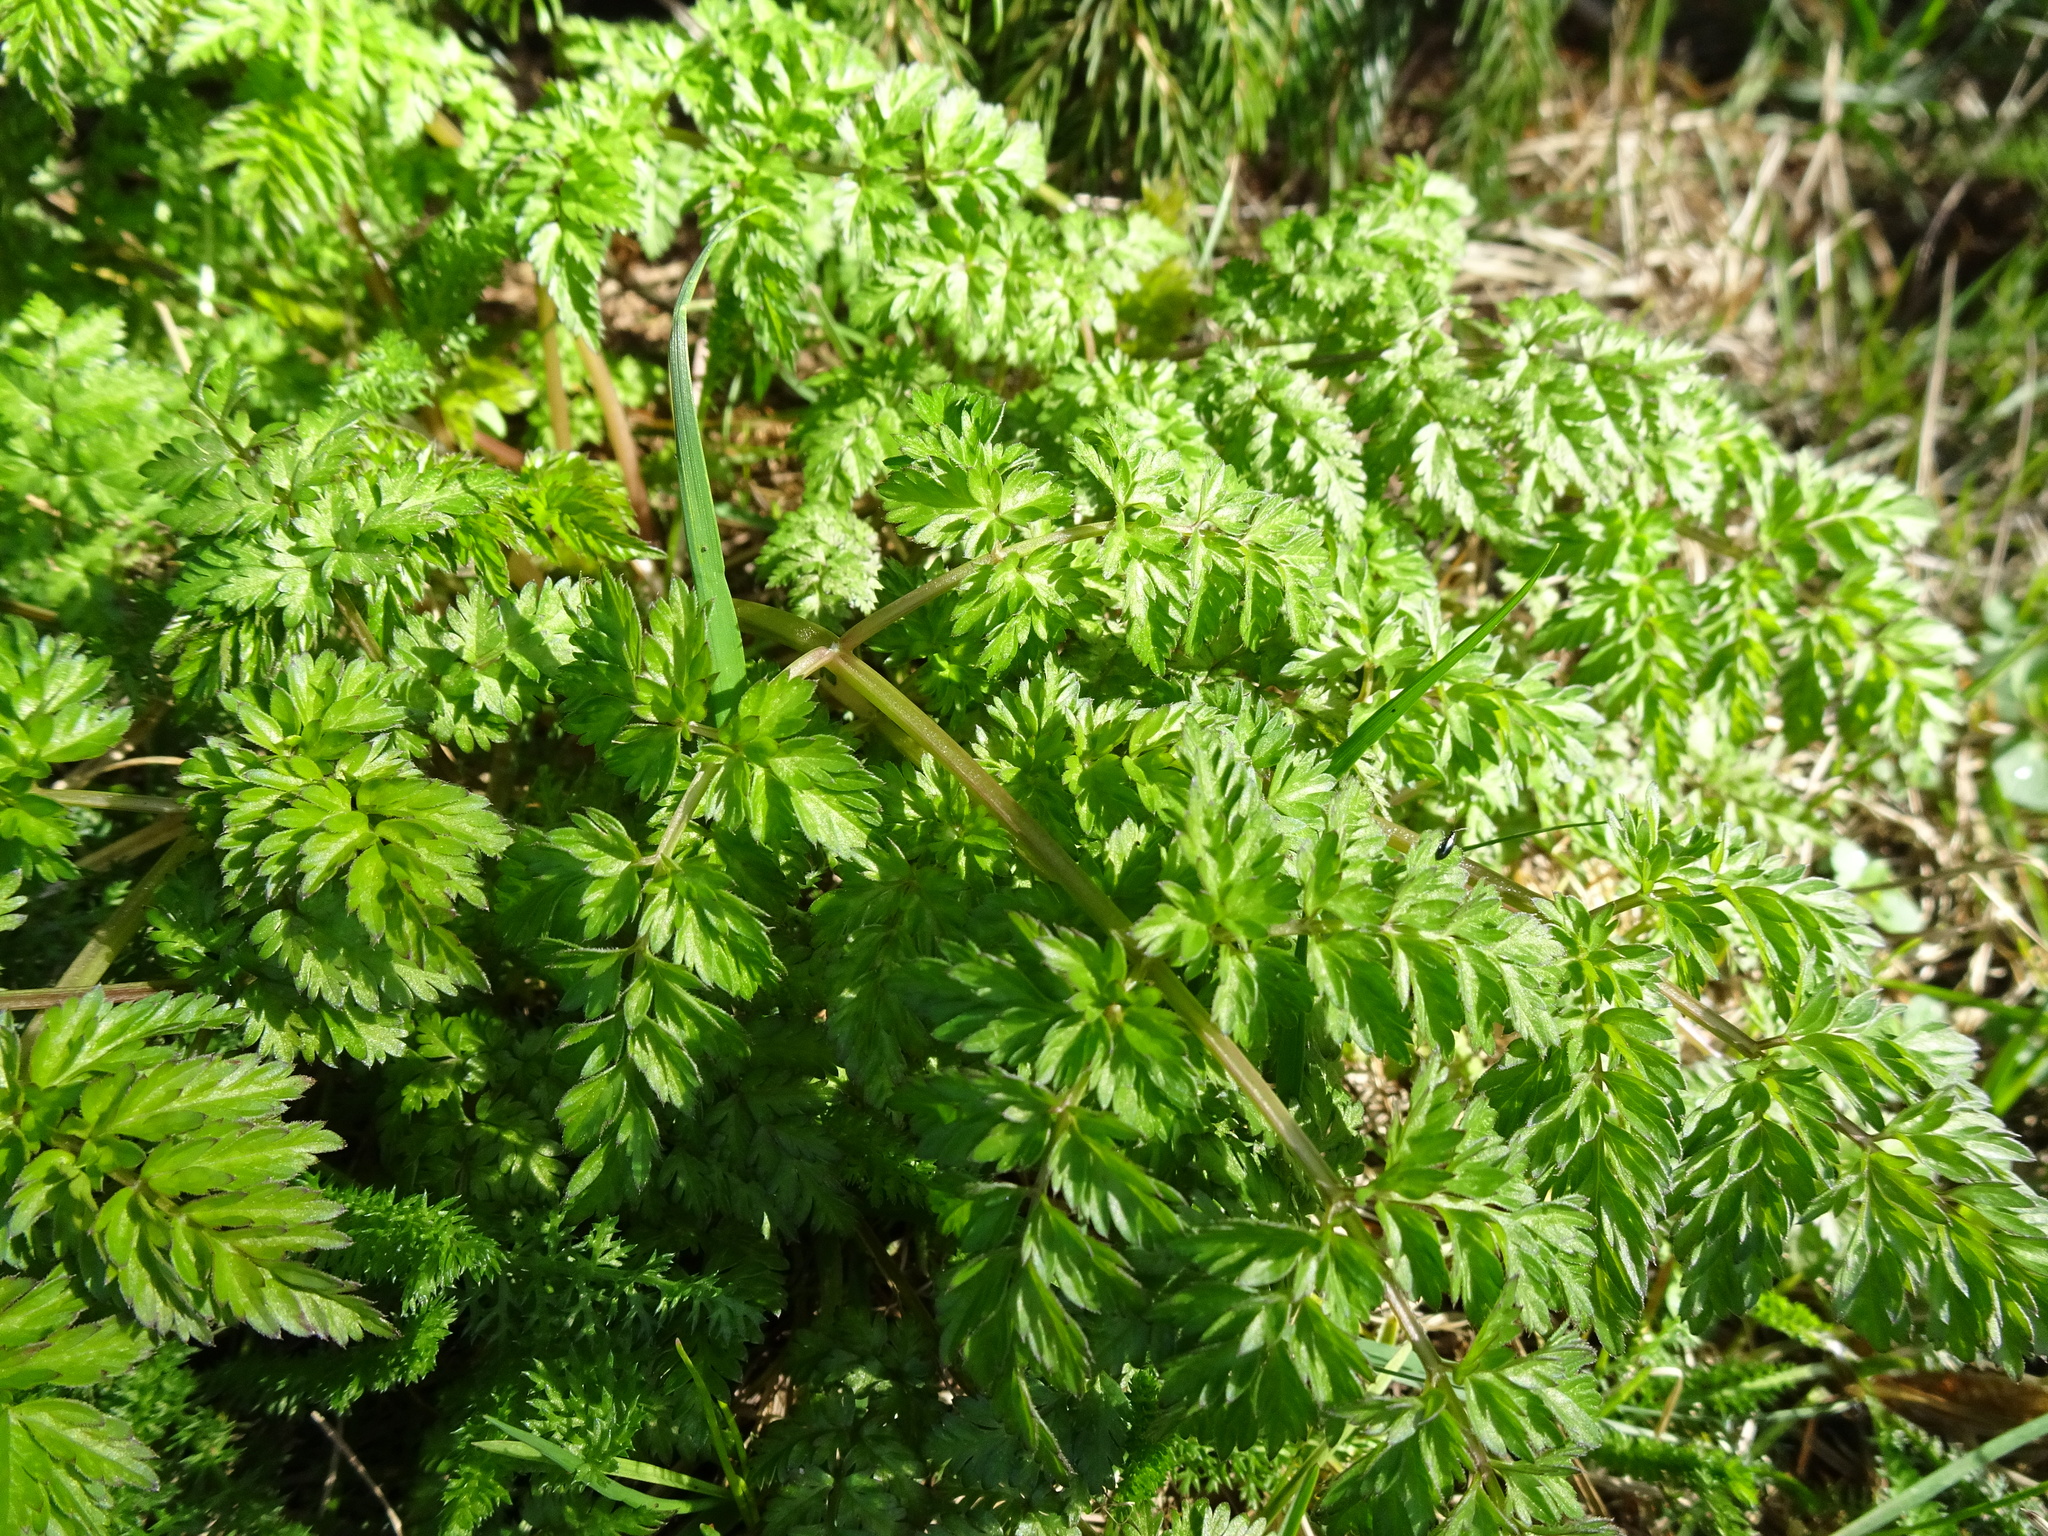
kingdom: Plantae
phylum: Tracheophyta
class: Magnoliopsida
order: Apiales
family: Apiaceae
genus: Anthriscus
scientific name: Anthriscus sylvestris
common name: Cow parsley
